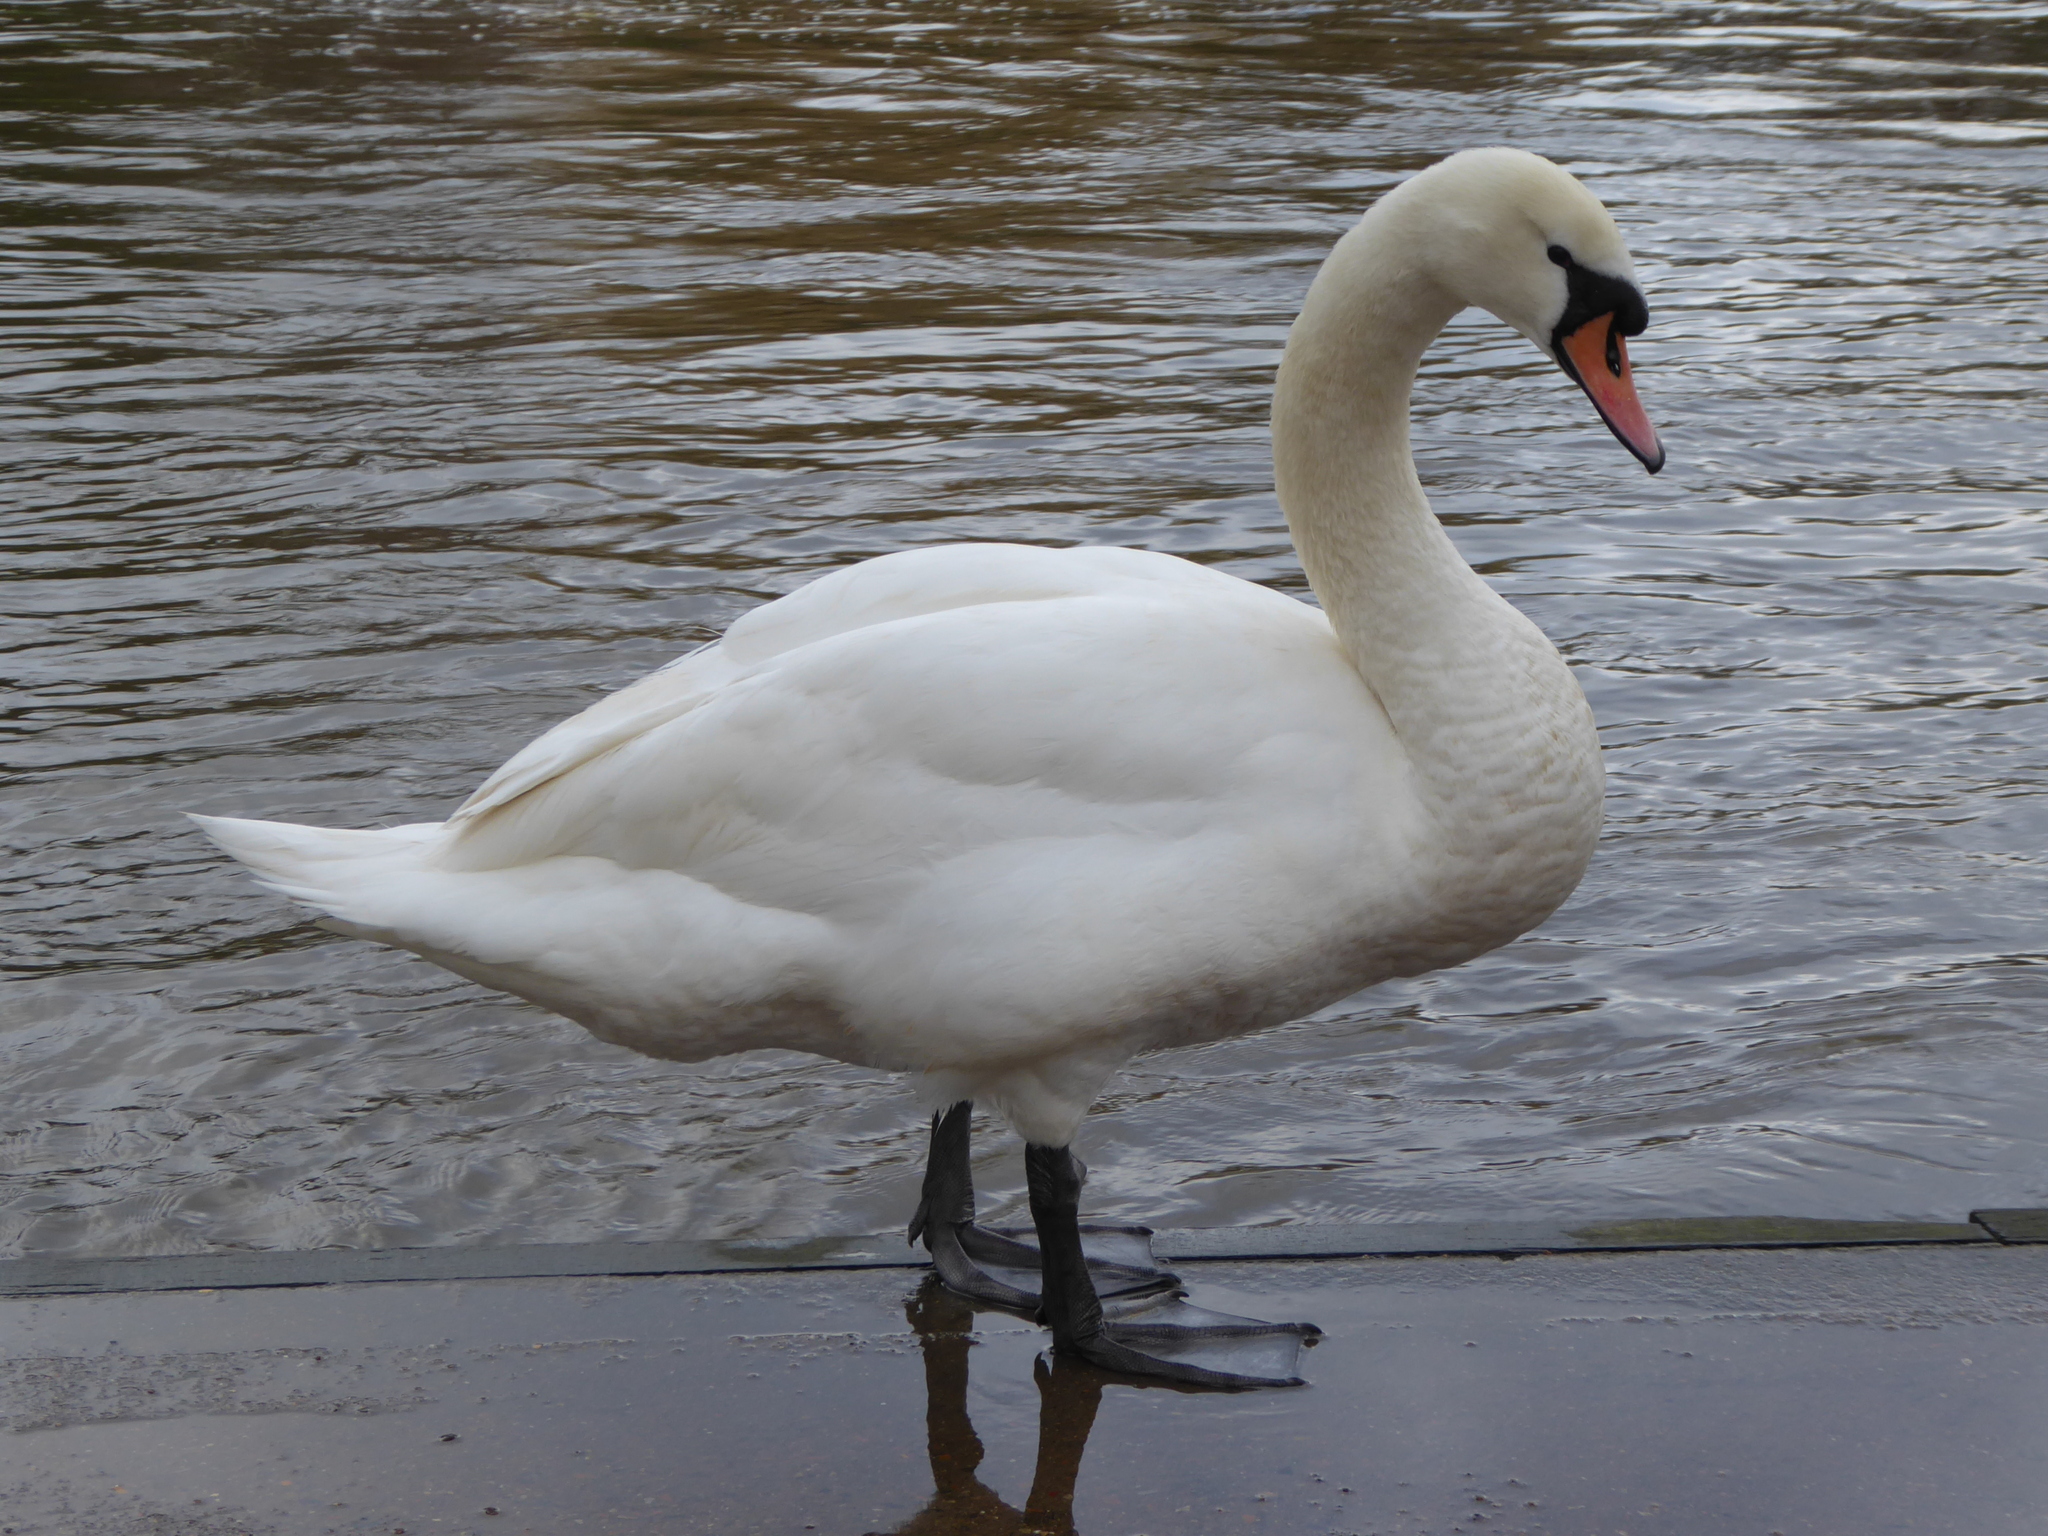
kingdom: Animalia
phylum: Chordata
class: Aves
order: Anseriformes
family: Anatidae
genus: Cygnus
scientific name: Cygnus olor
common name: Mute swan
